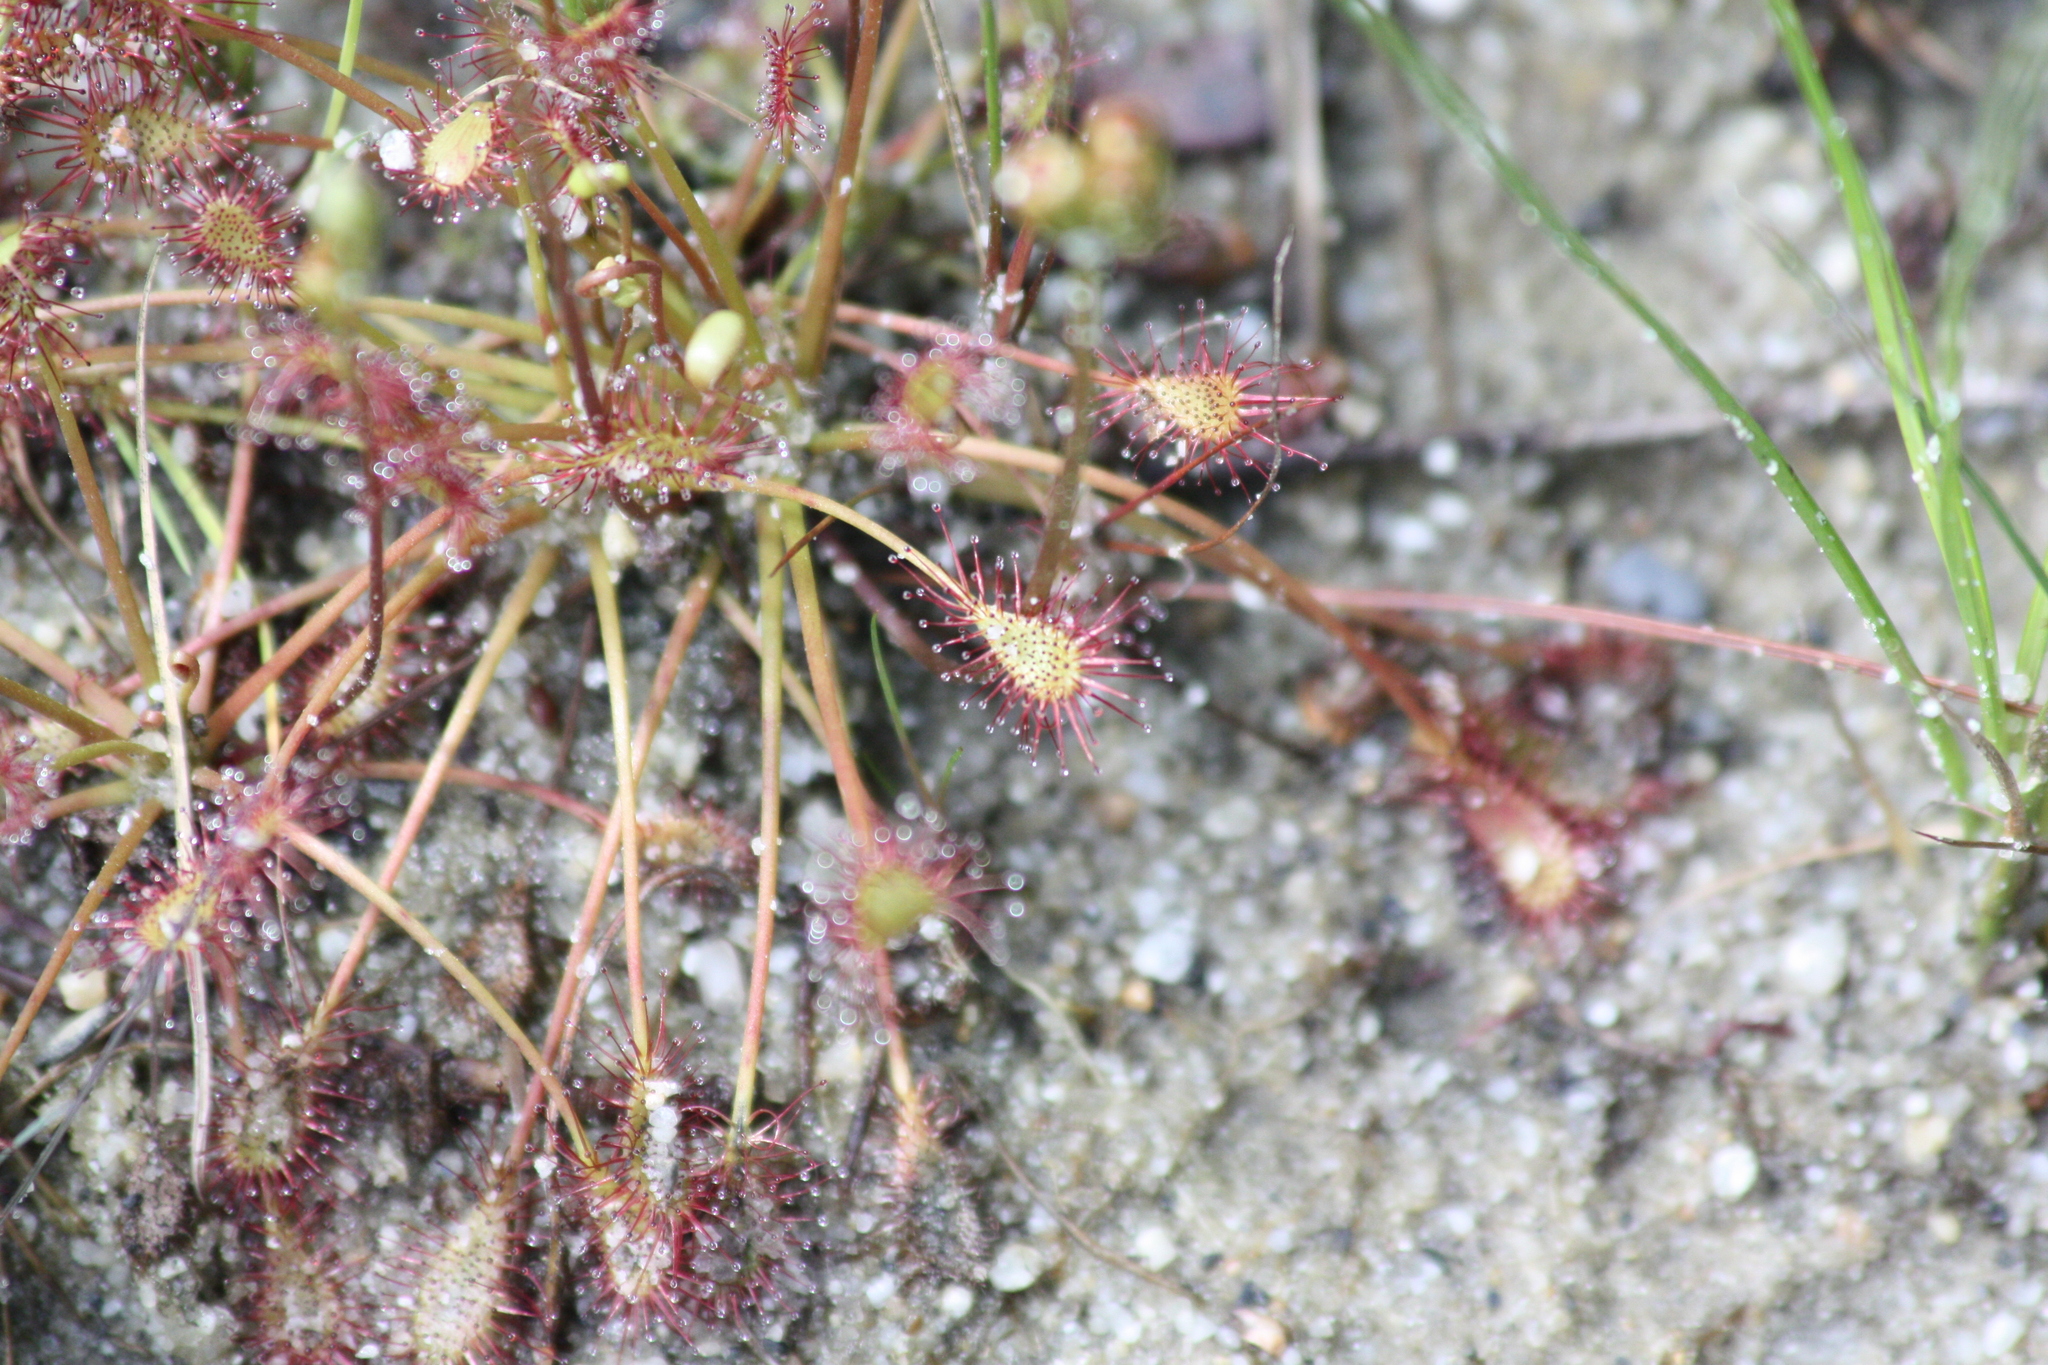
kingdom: Plantae
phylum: Tracheophyta
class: Magnoliopsida
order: Caryophyllales
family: Droseraceae
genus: Drosera
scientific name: Drosera intermedia
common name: Oblong-leaved sundew
